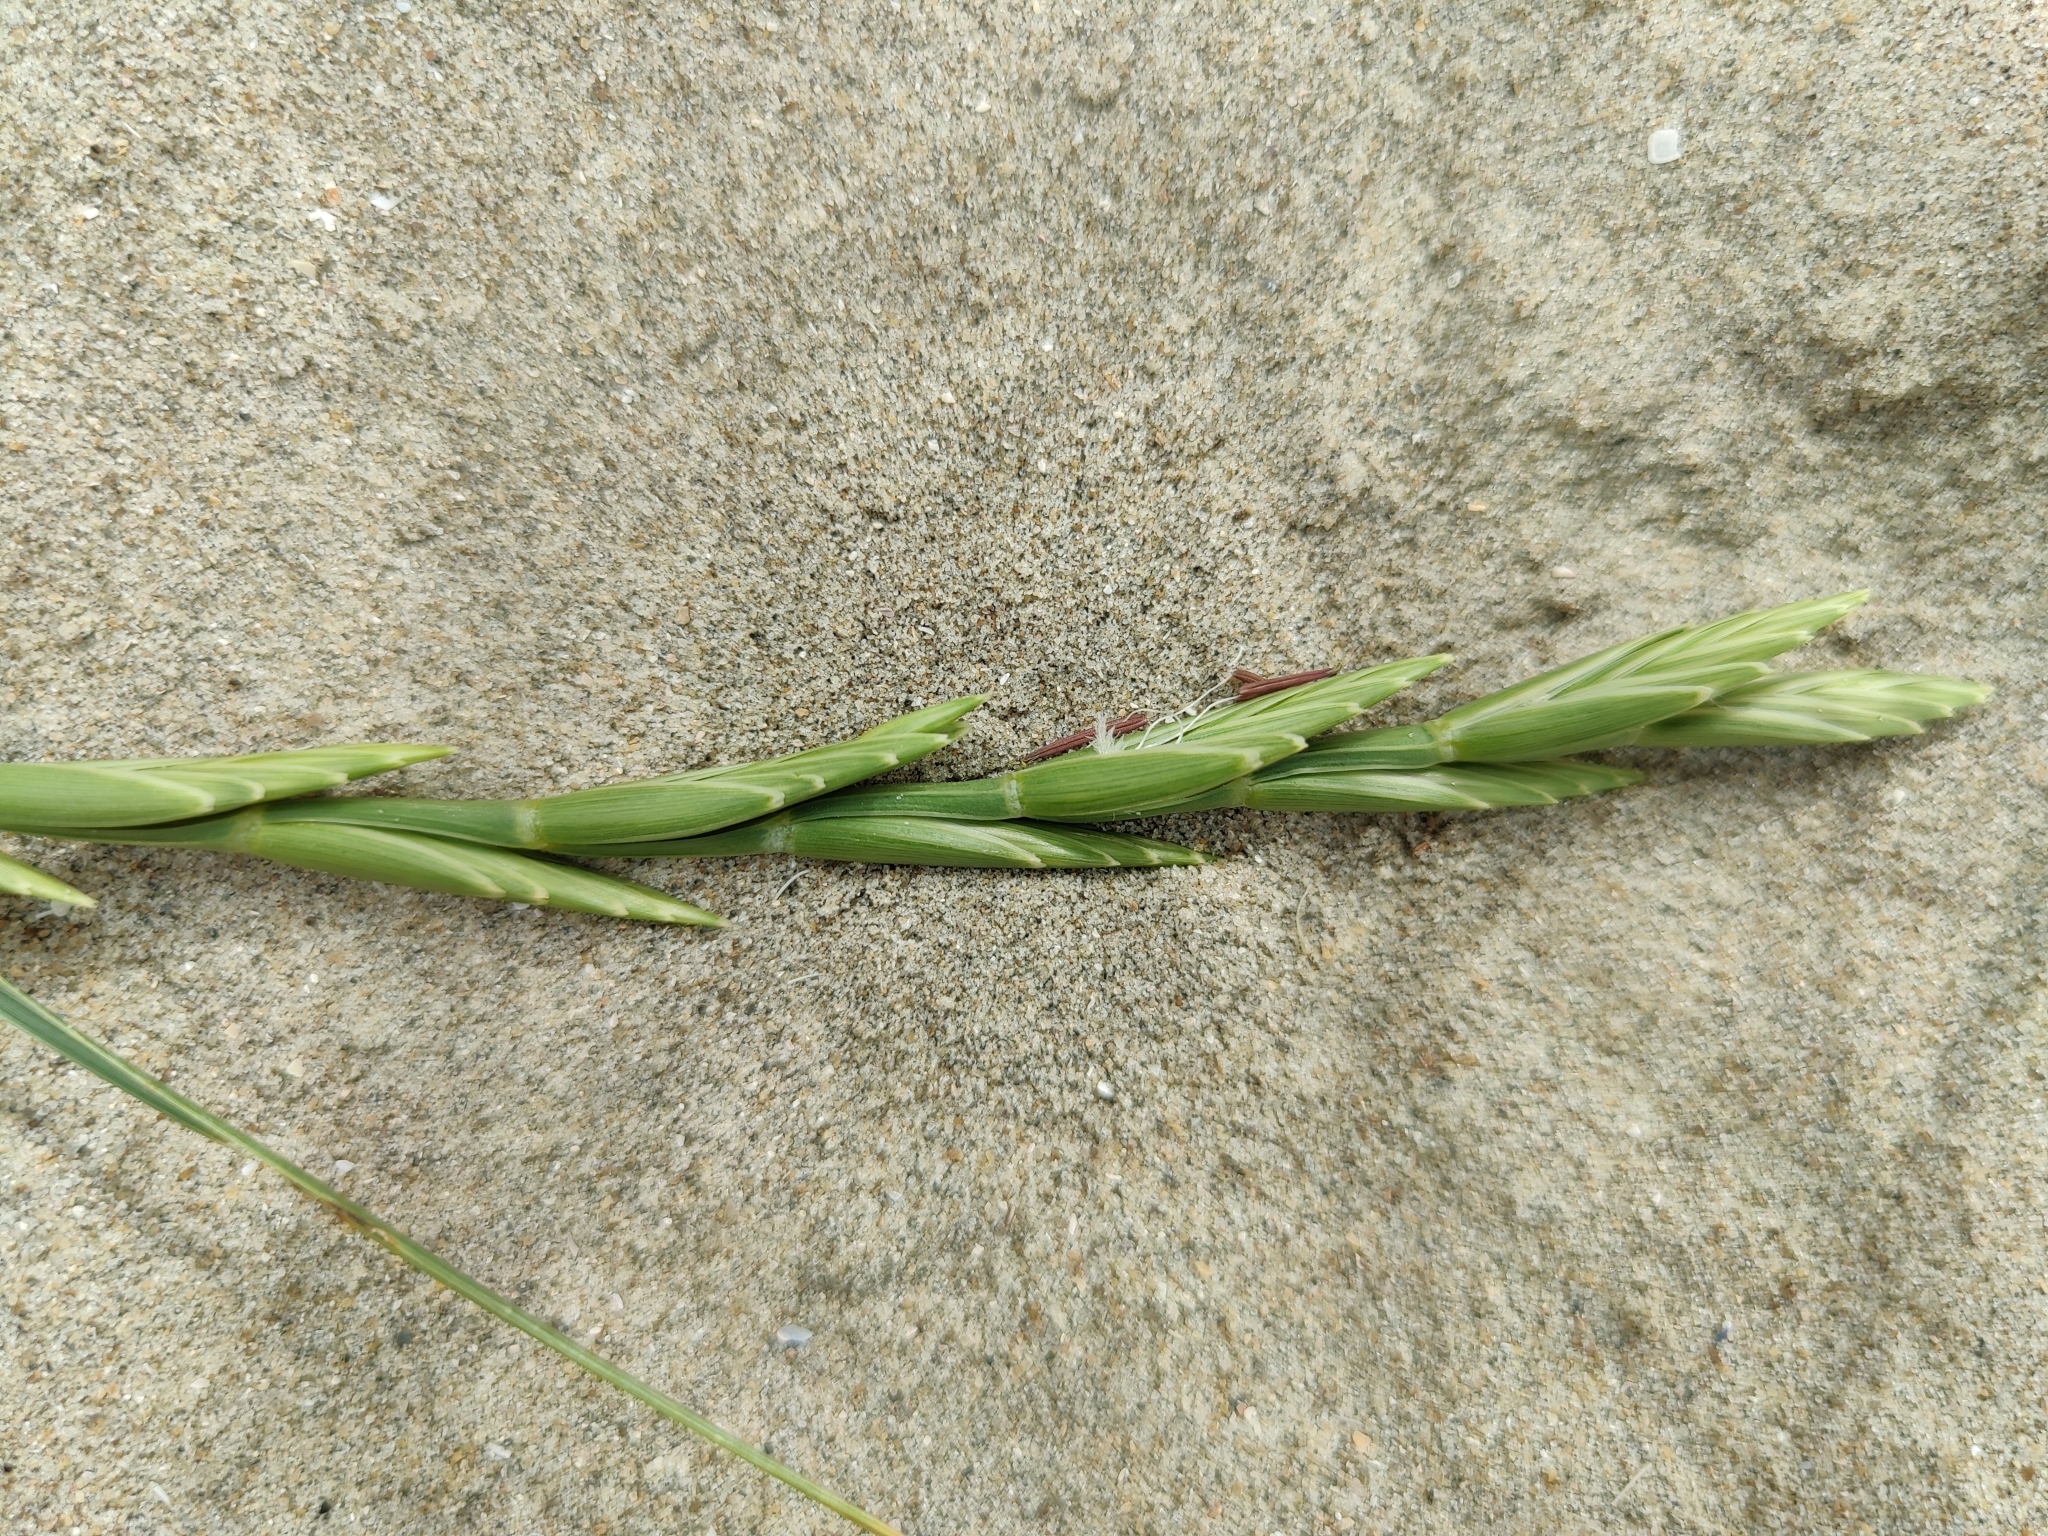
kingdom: Plantae
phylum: Tracheophyta
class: Liliopsida
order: Poales
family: Poaceae
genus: Leymus
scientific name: Leymus arenarius
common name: Lyme-grass
